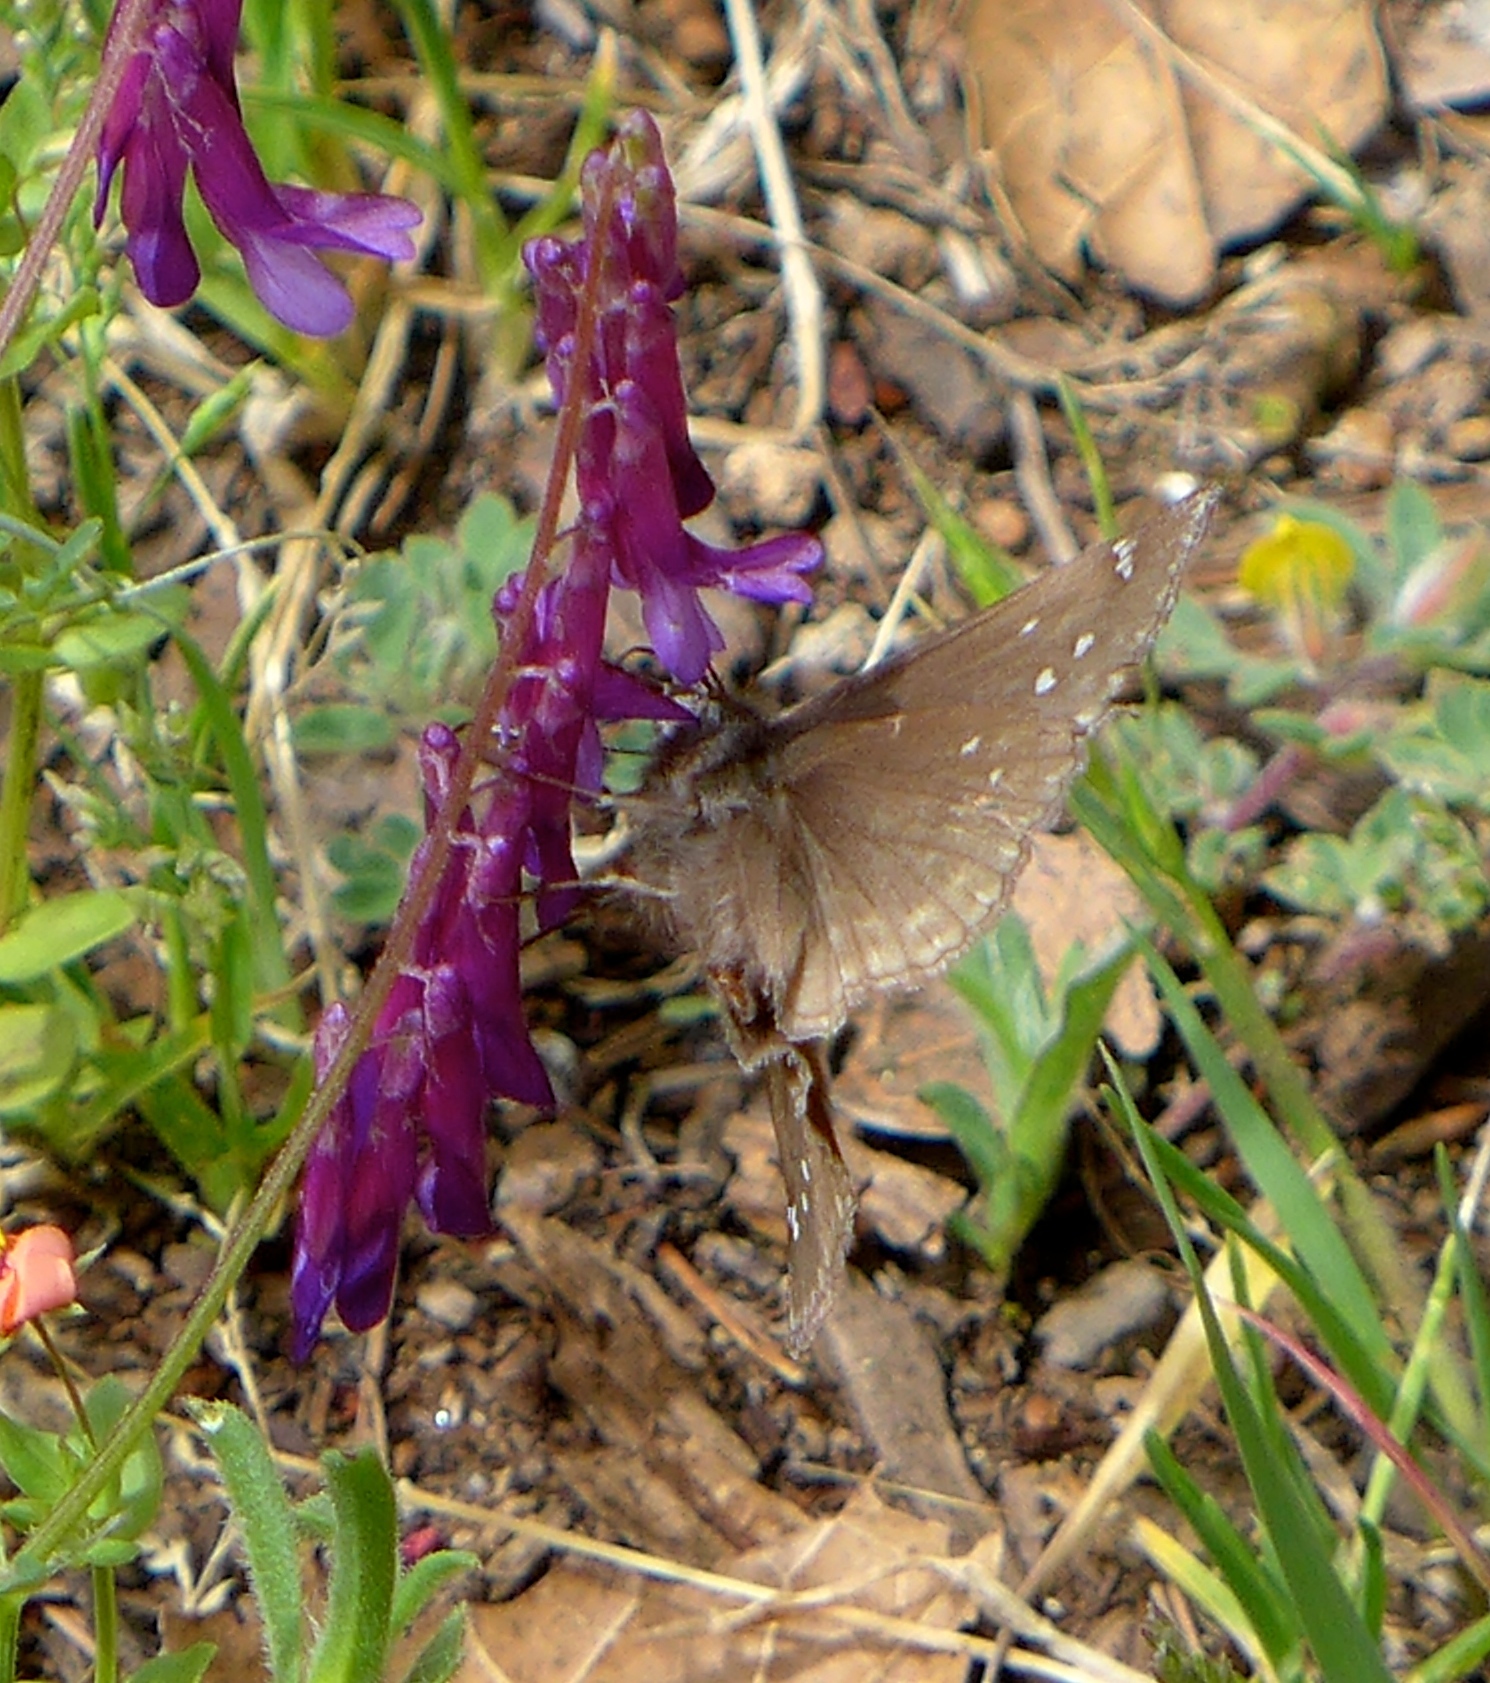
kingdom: Animalia
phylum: Arthropoda
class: Insecta
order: Lepidoptera
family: Hesperiidae
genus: Erynnis
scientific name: Erynnis propertius
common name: Propertius duskywing
